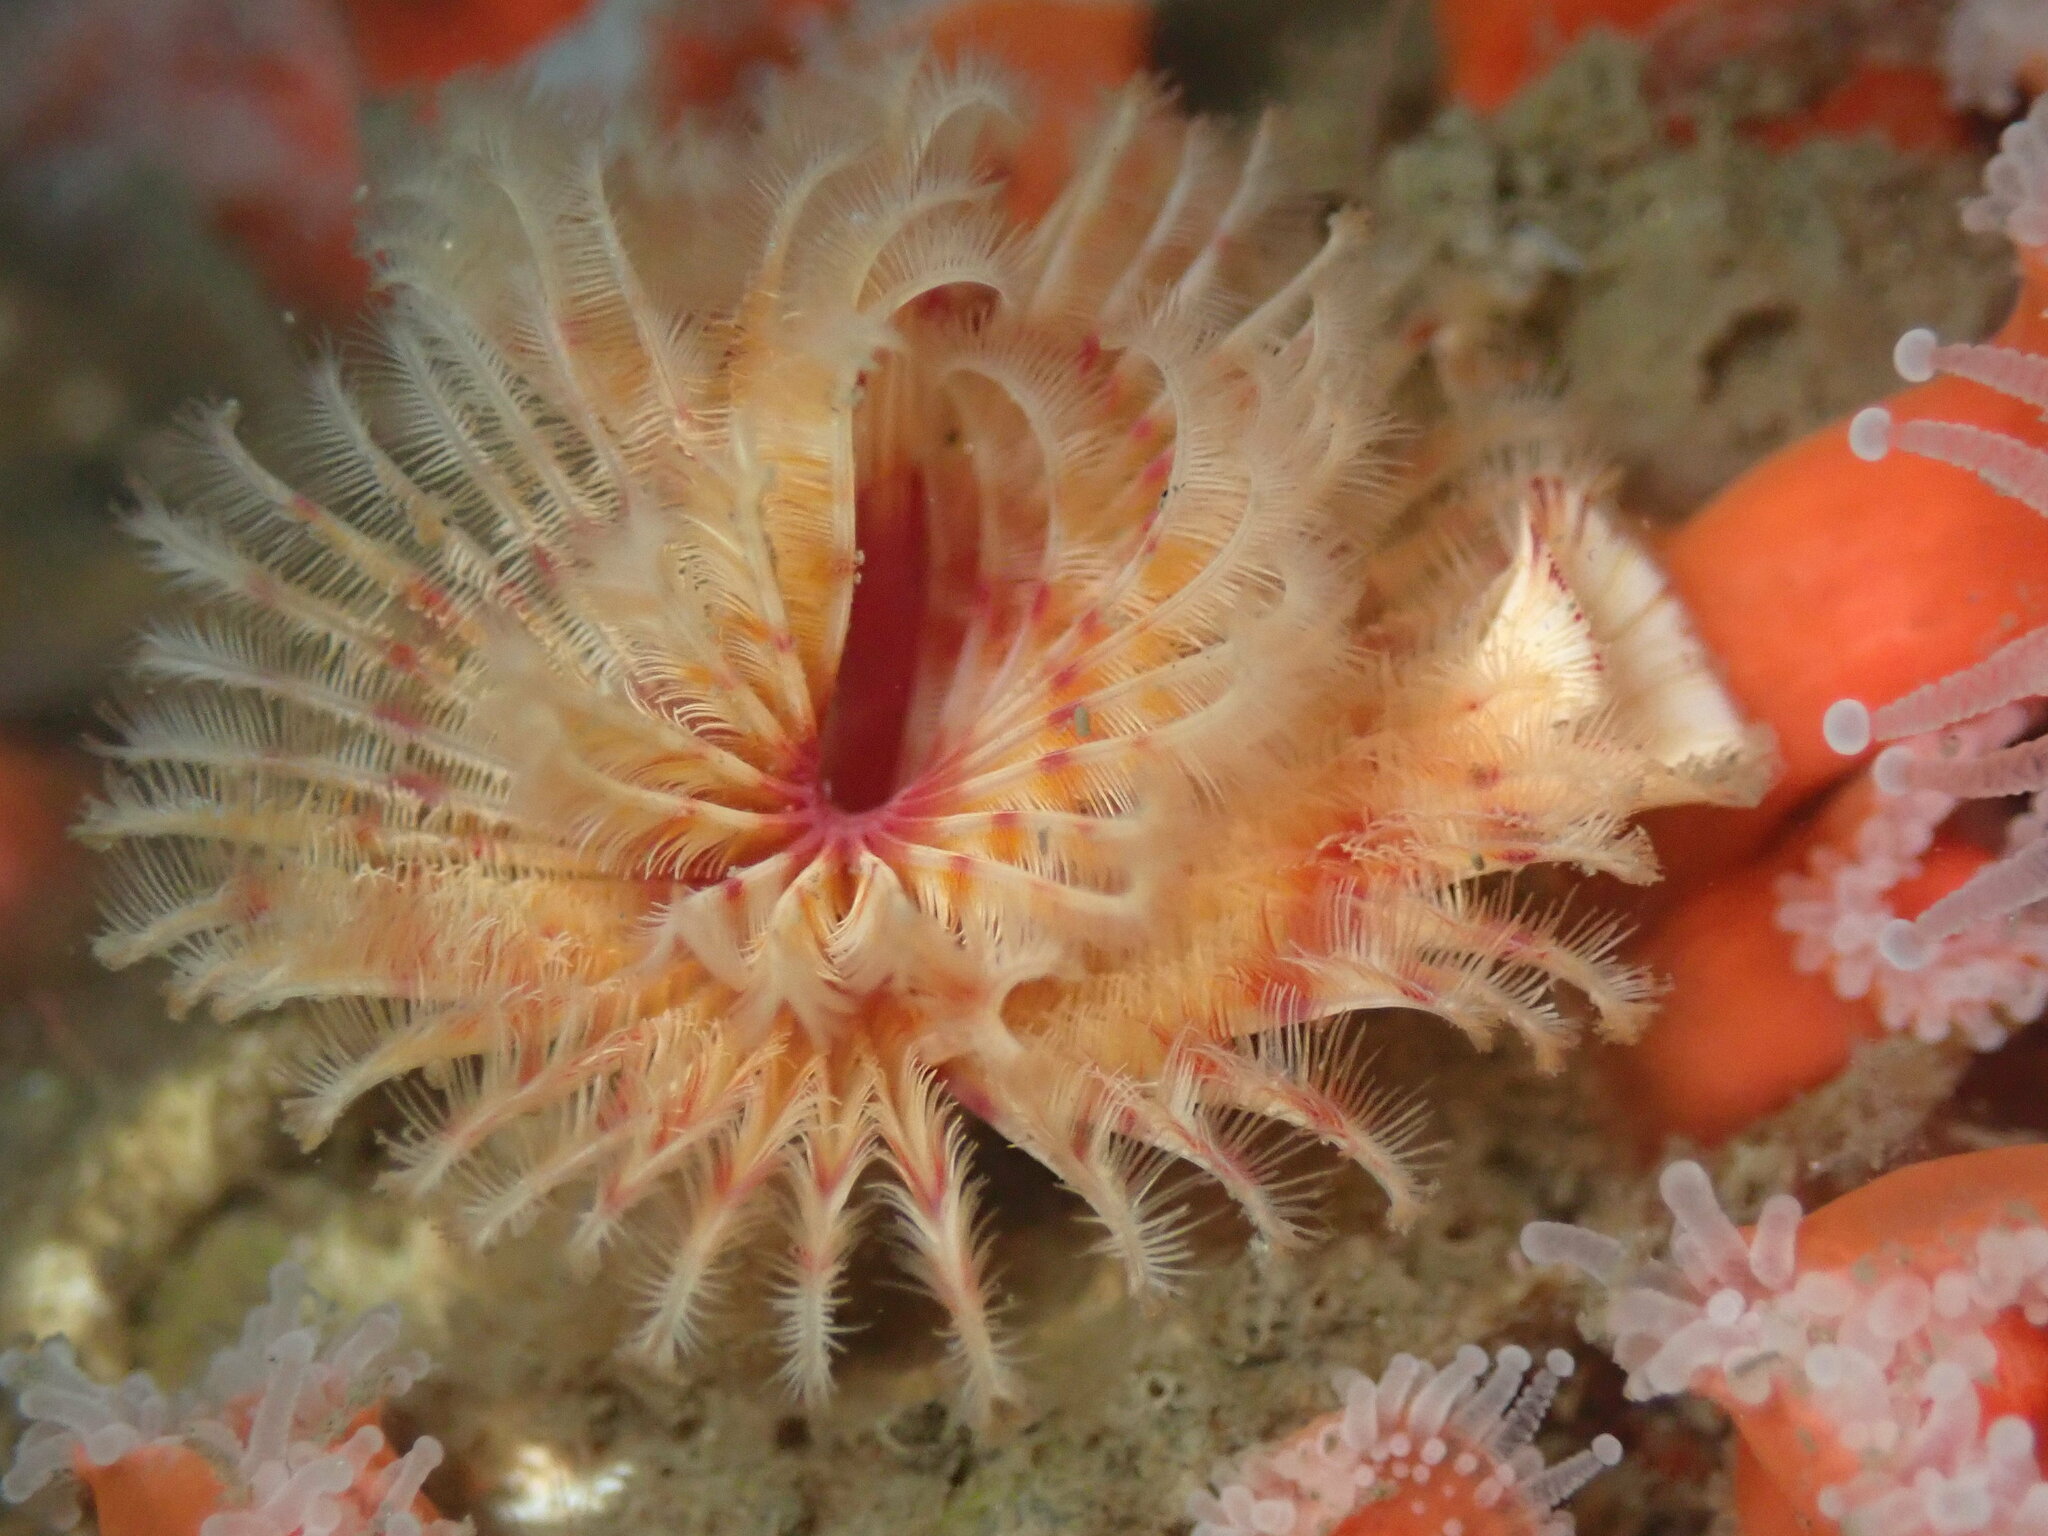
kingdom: Animalia
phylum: Annelida
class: Polychaeta
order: Sabellida
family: Serpulidae
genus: Serpula
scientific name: Serpula columbiana
